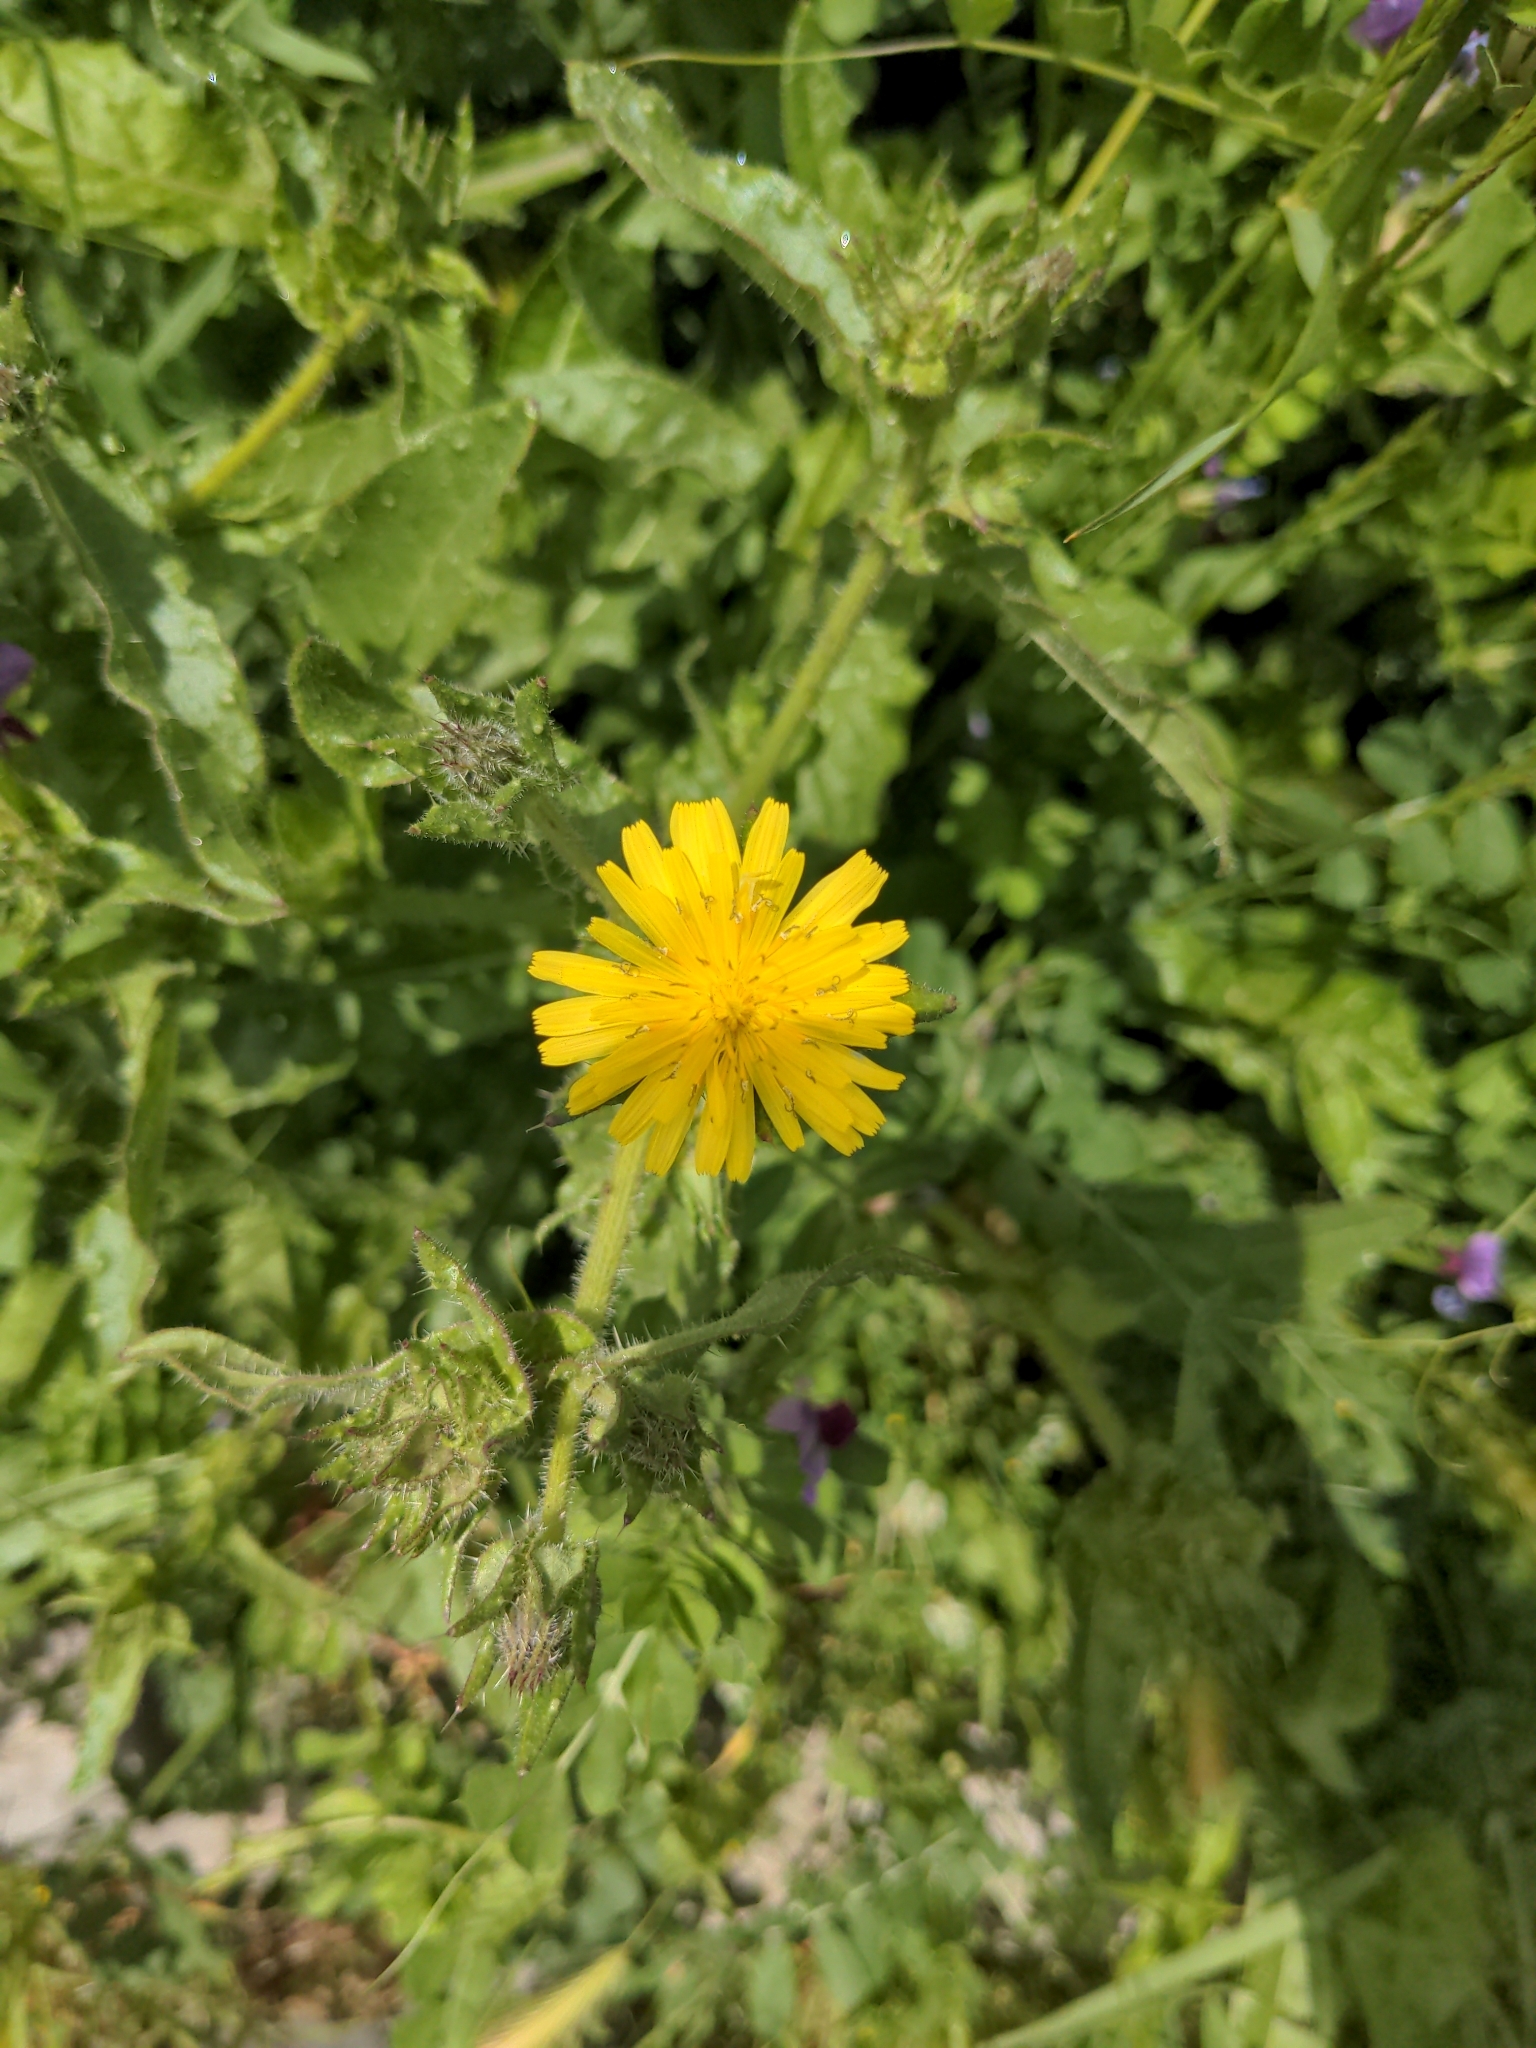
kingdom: Plantae
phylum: Tracheophyta
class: Magnoliopsida
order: Asterales
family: Asteraceae
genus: Helminthotheca
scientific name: Helminthotheca echioides
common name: Ox-tongue
